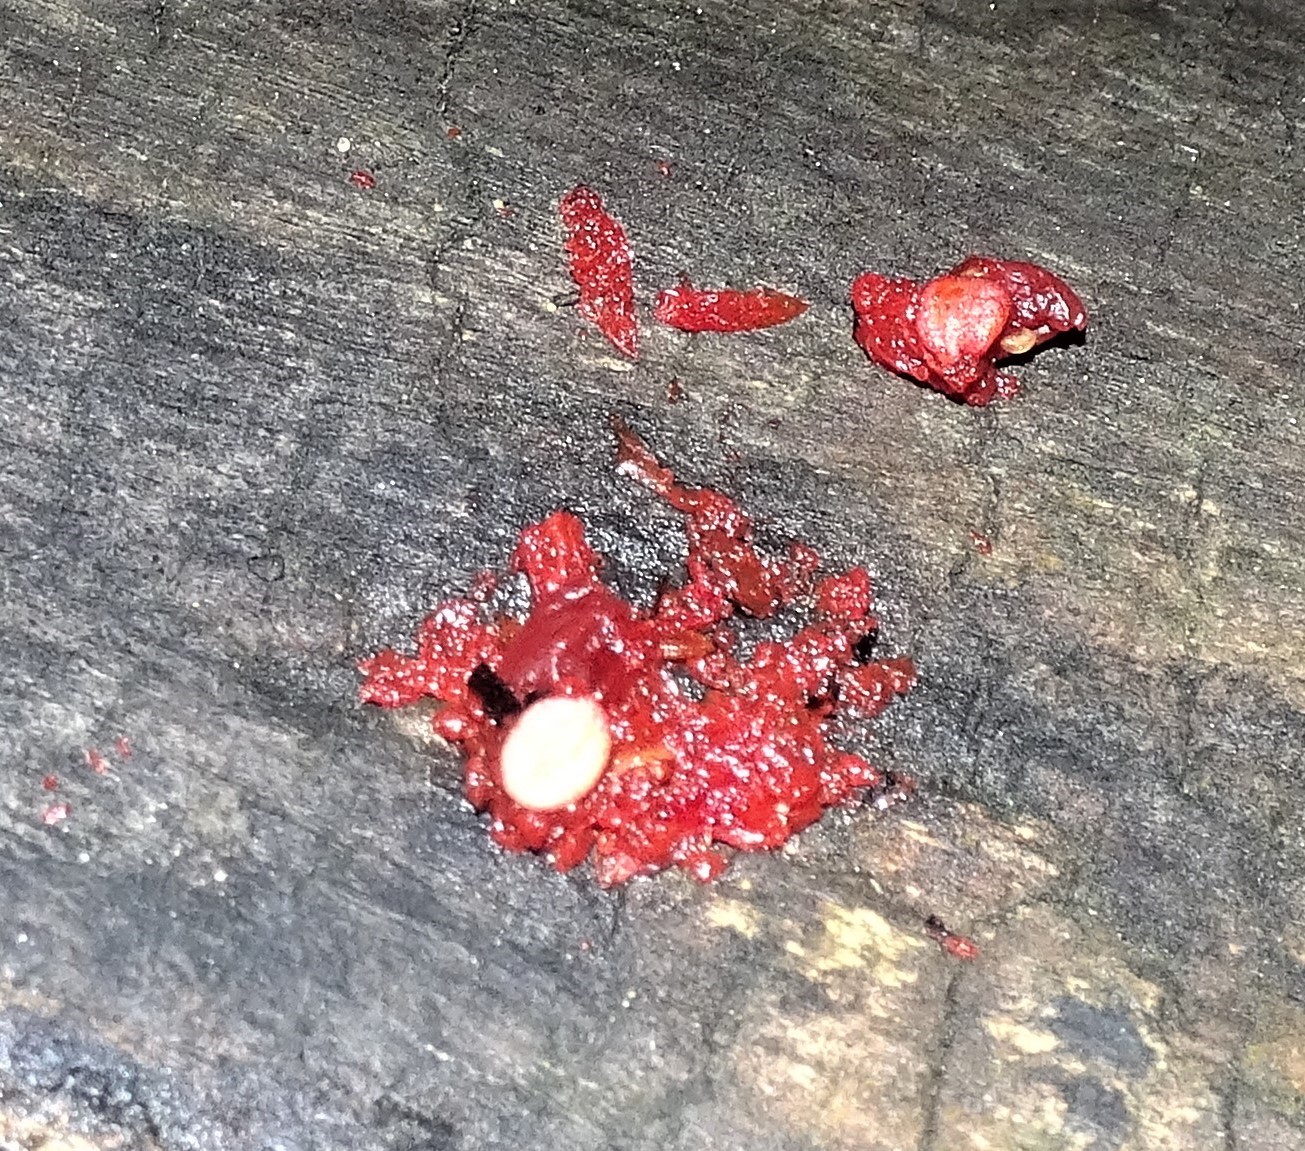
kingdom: Fungi
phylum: Basidiomycota
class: Agaricomycetes
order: Cantharellales
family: Tulasnellaceae
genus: Tulasnella
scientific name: Tulasnella aurantiaca
